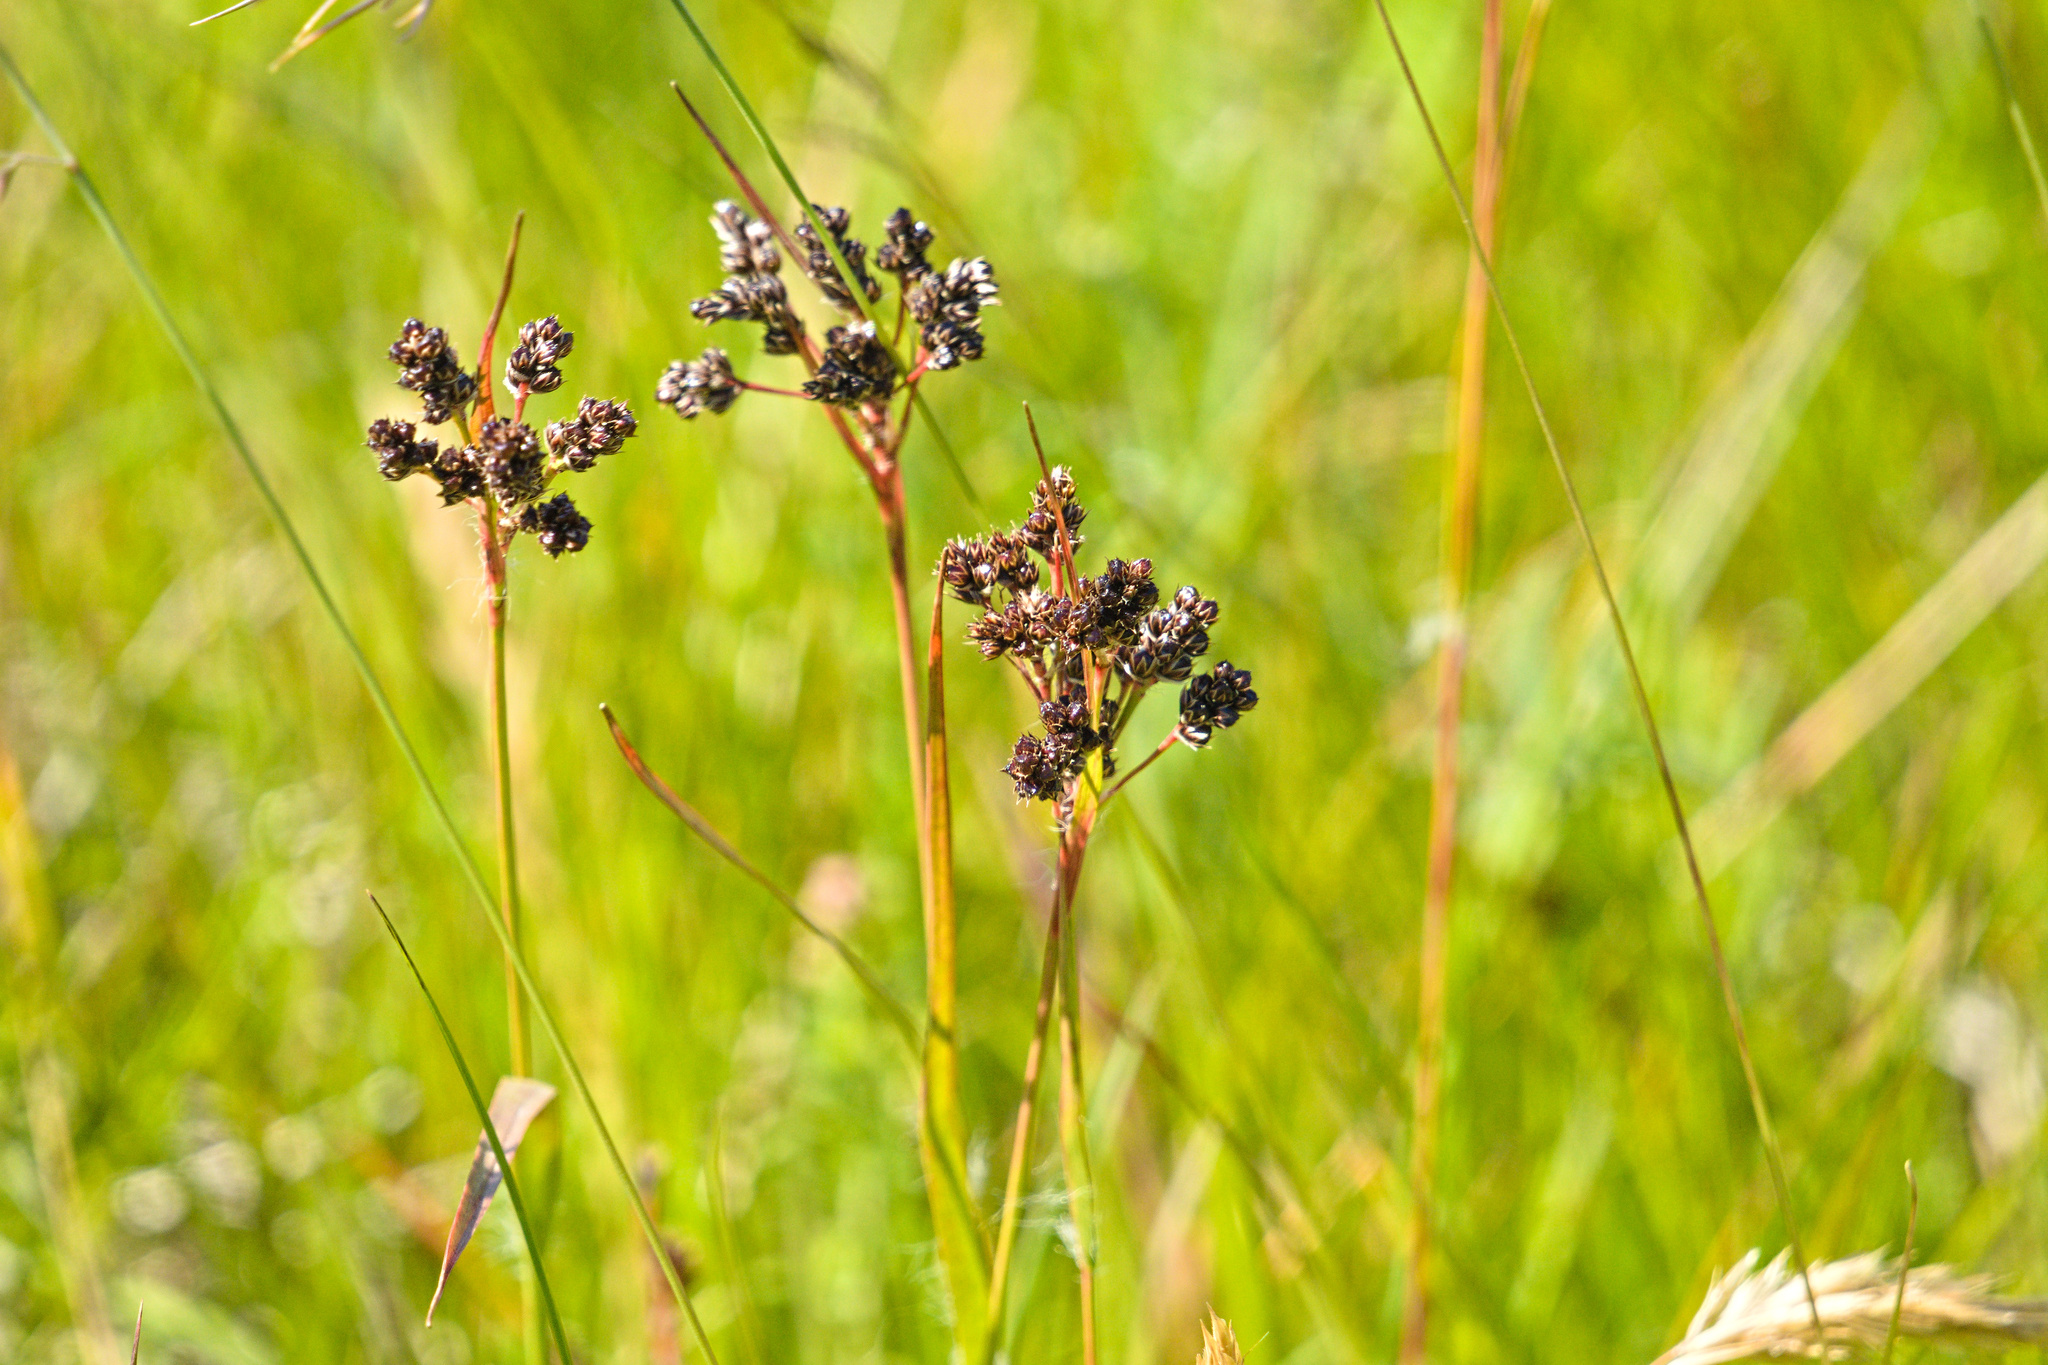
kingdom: Plantae
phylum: Tracheophyta
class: Liliopsida
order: Poales
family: Juncaceae
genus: Luzula
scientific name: Luzula multiflora
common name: Heath wood-rush
